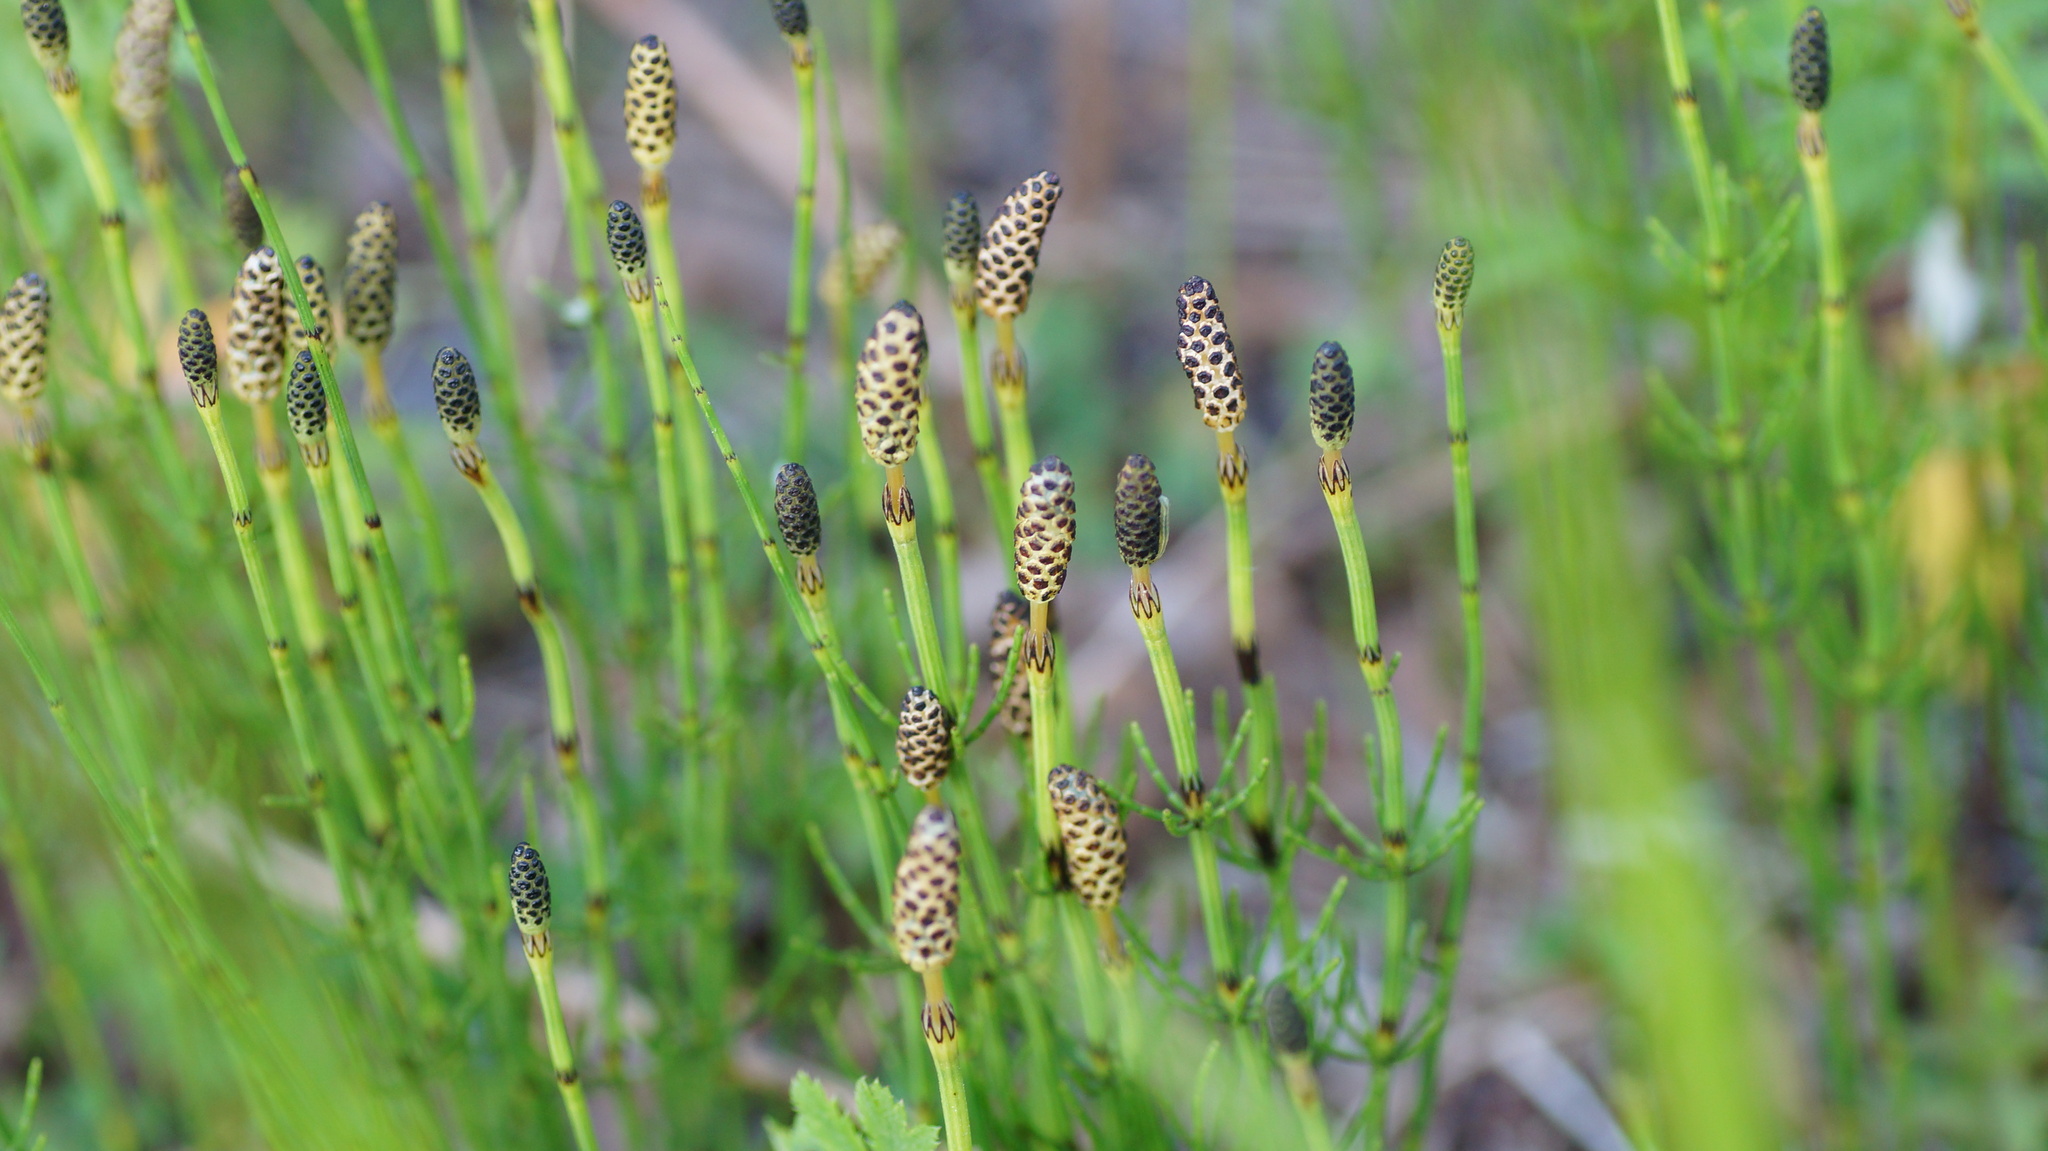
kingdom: Plantae
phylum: Tracheophyta
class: Polypodiopsida
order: Equisetales
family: Equisetaceae
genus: Equisetum
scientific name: Equisetum palustre
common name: Marsh horsetail
